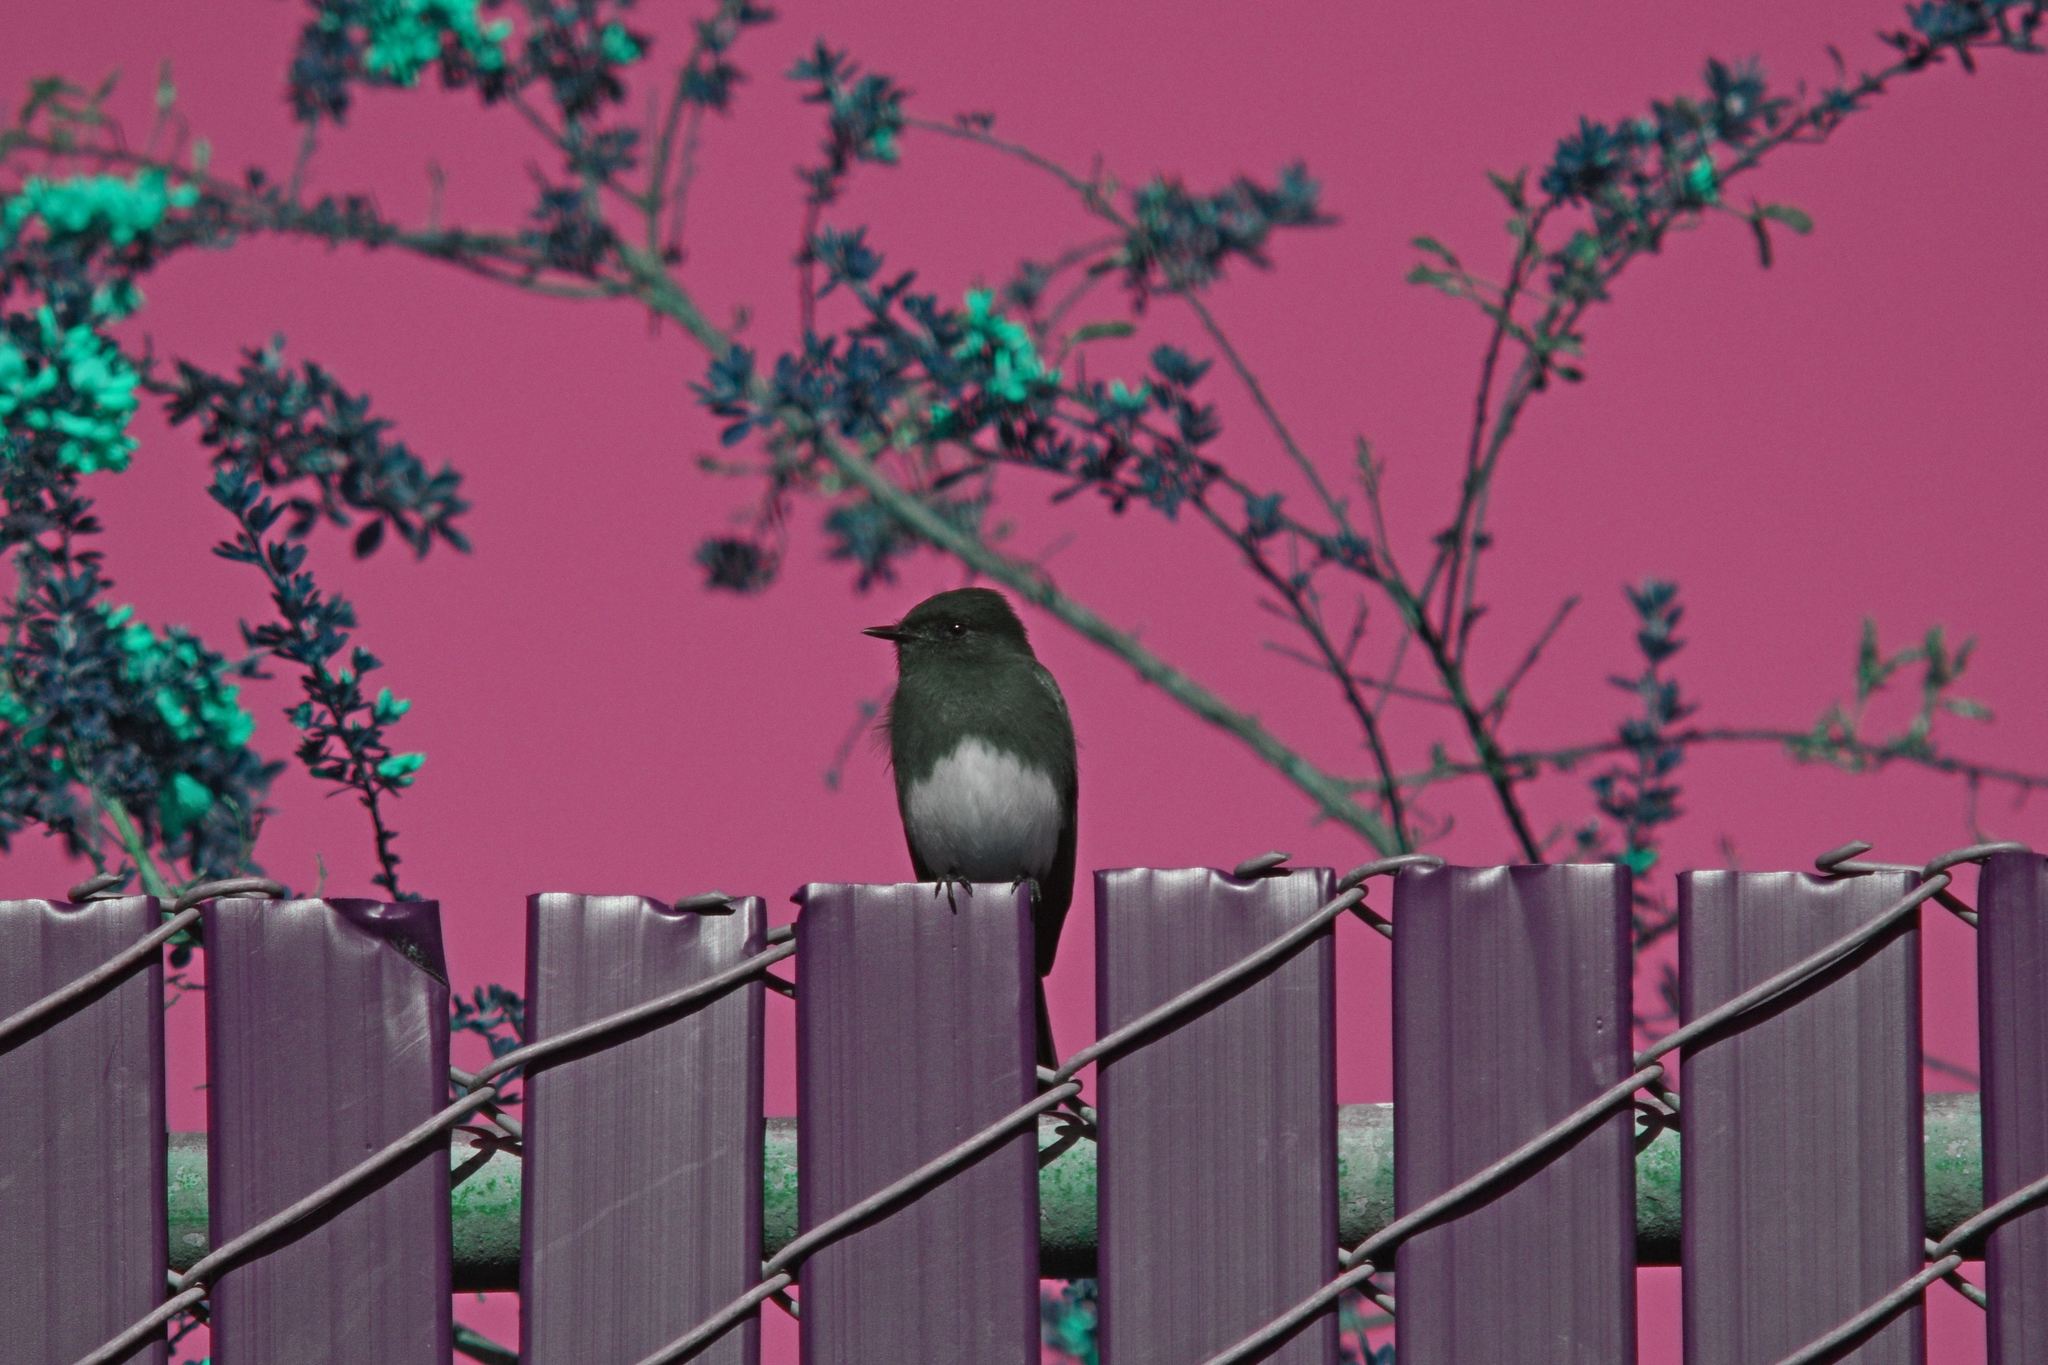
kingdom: Animalia
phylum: Chordata
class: Aves
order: Passeriformes
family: Tyrannidae
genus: Sayornis
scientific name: Sayornis nigricans
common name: Black phoebe
